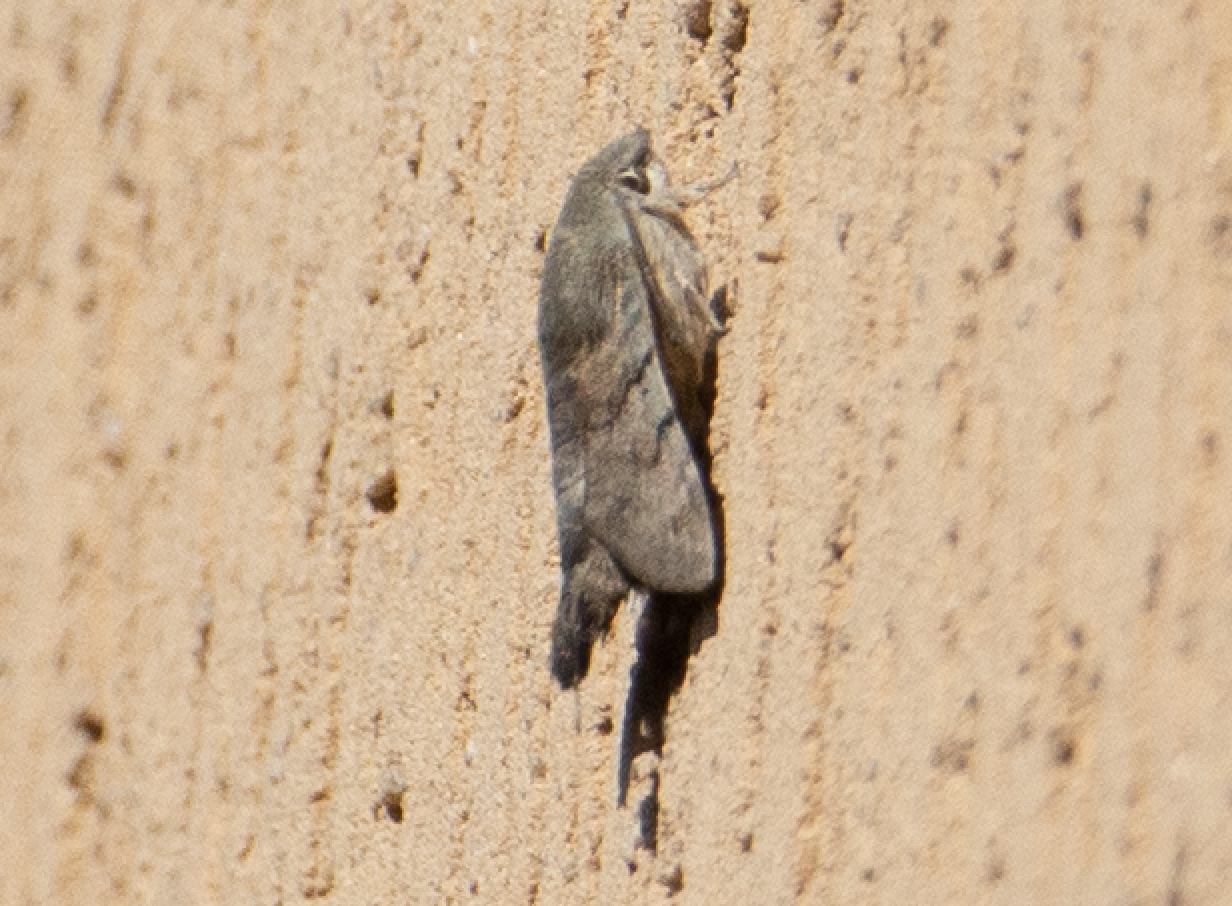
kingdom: Animalia
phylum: Arthropoda
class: Insecta
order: Lepidoptera
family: Sphingidae
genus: Macroglossum
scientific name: Macroglossum stellatarum
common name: Humming-bird hawk-moth
